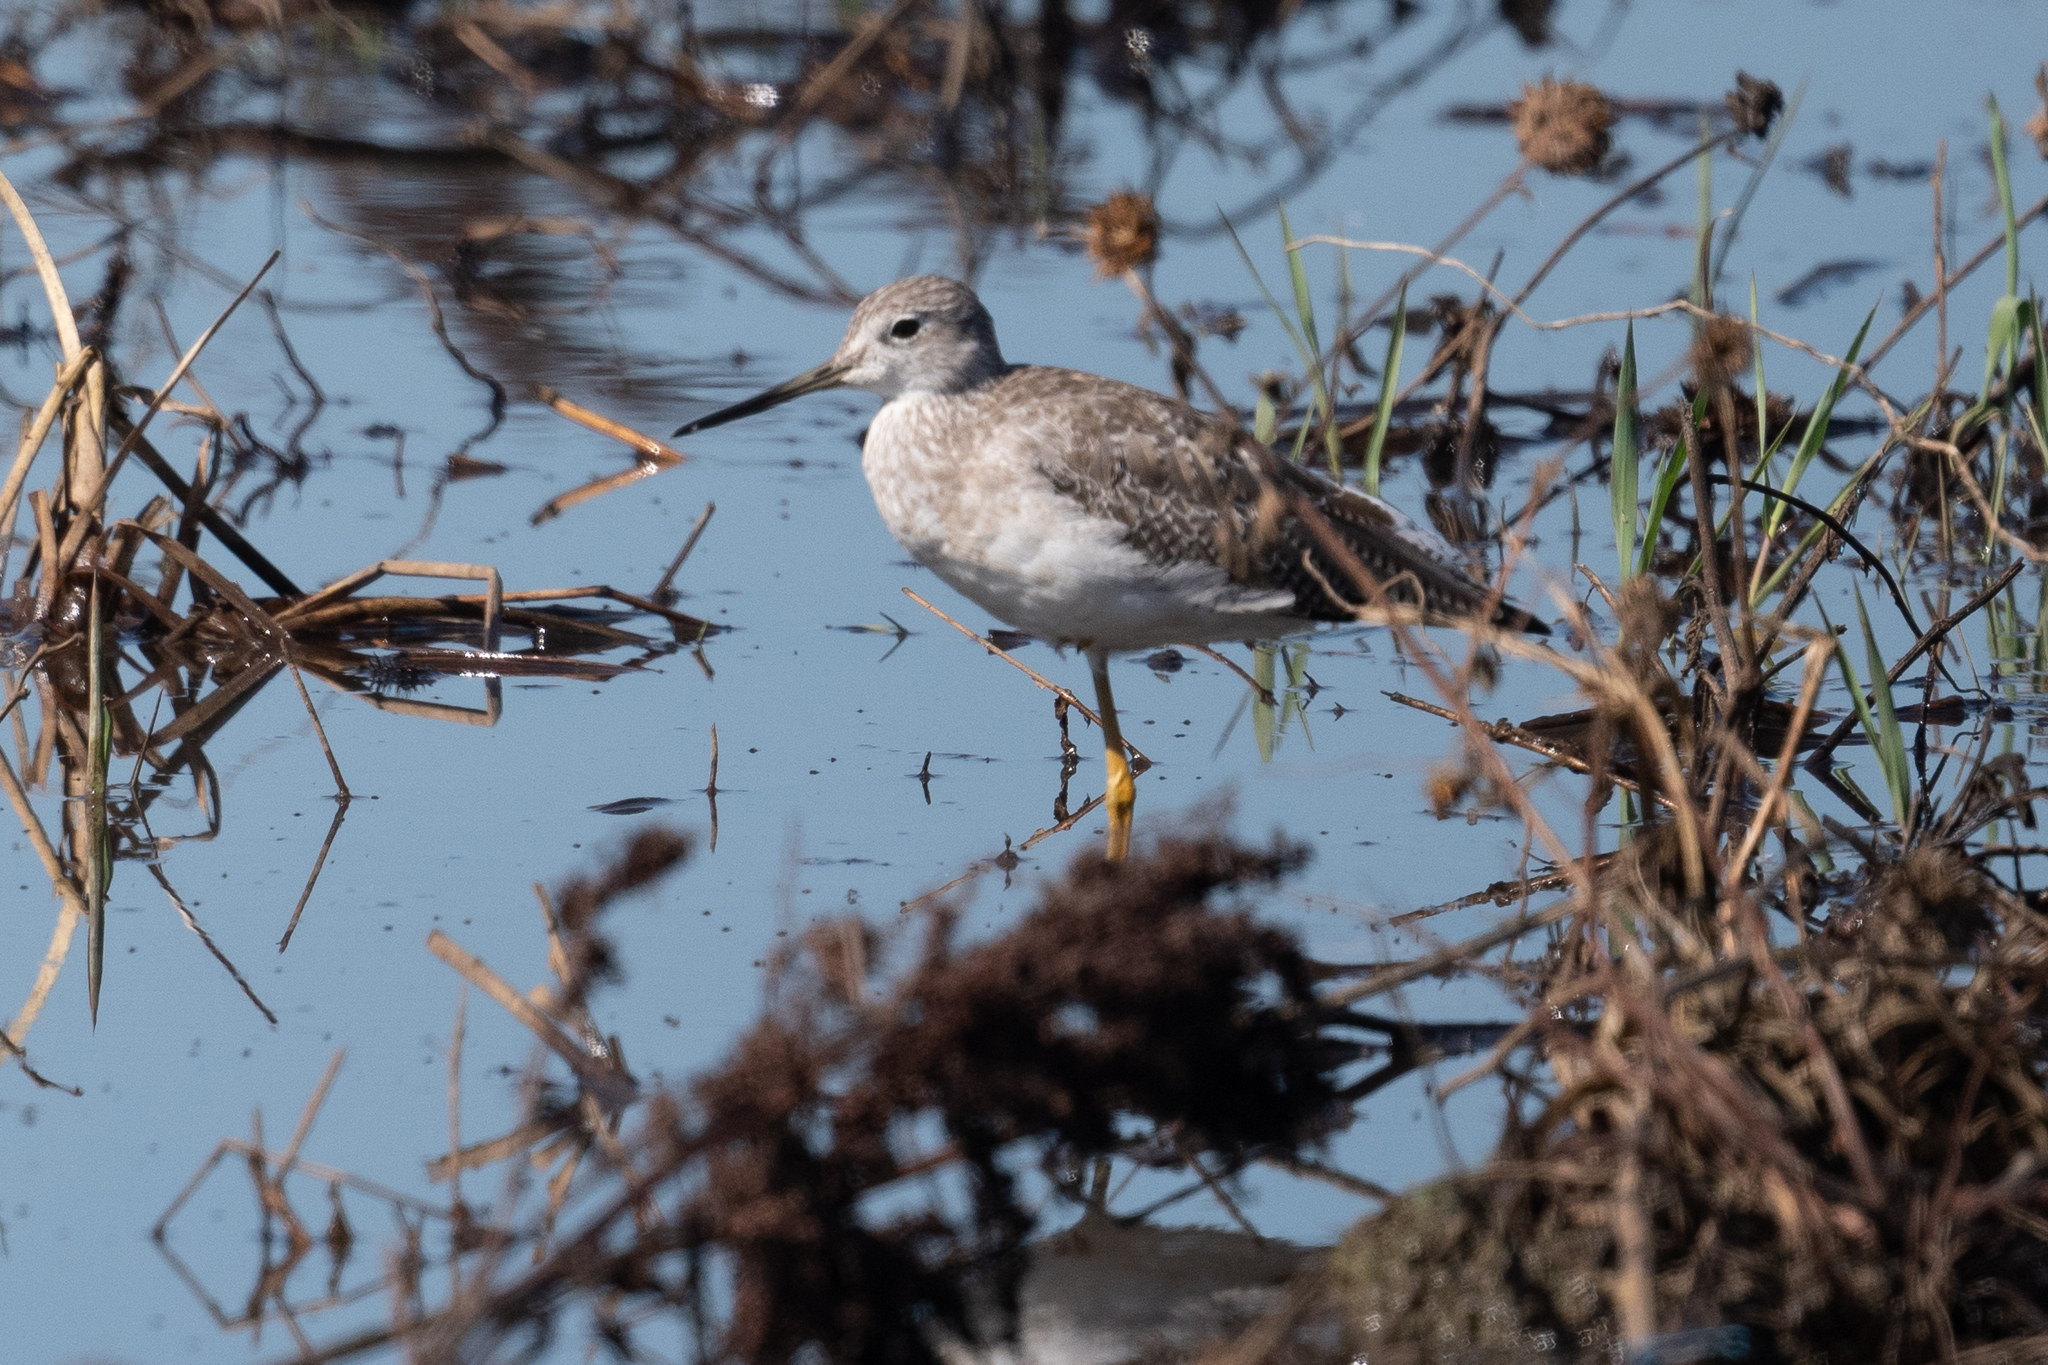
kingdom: Animalia
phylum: Chordata
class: Aves
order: Charadriiformes
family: Scolopacidae
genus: Tringa
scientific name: Tringa melanoleuca
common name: Greater yellowlegs
